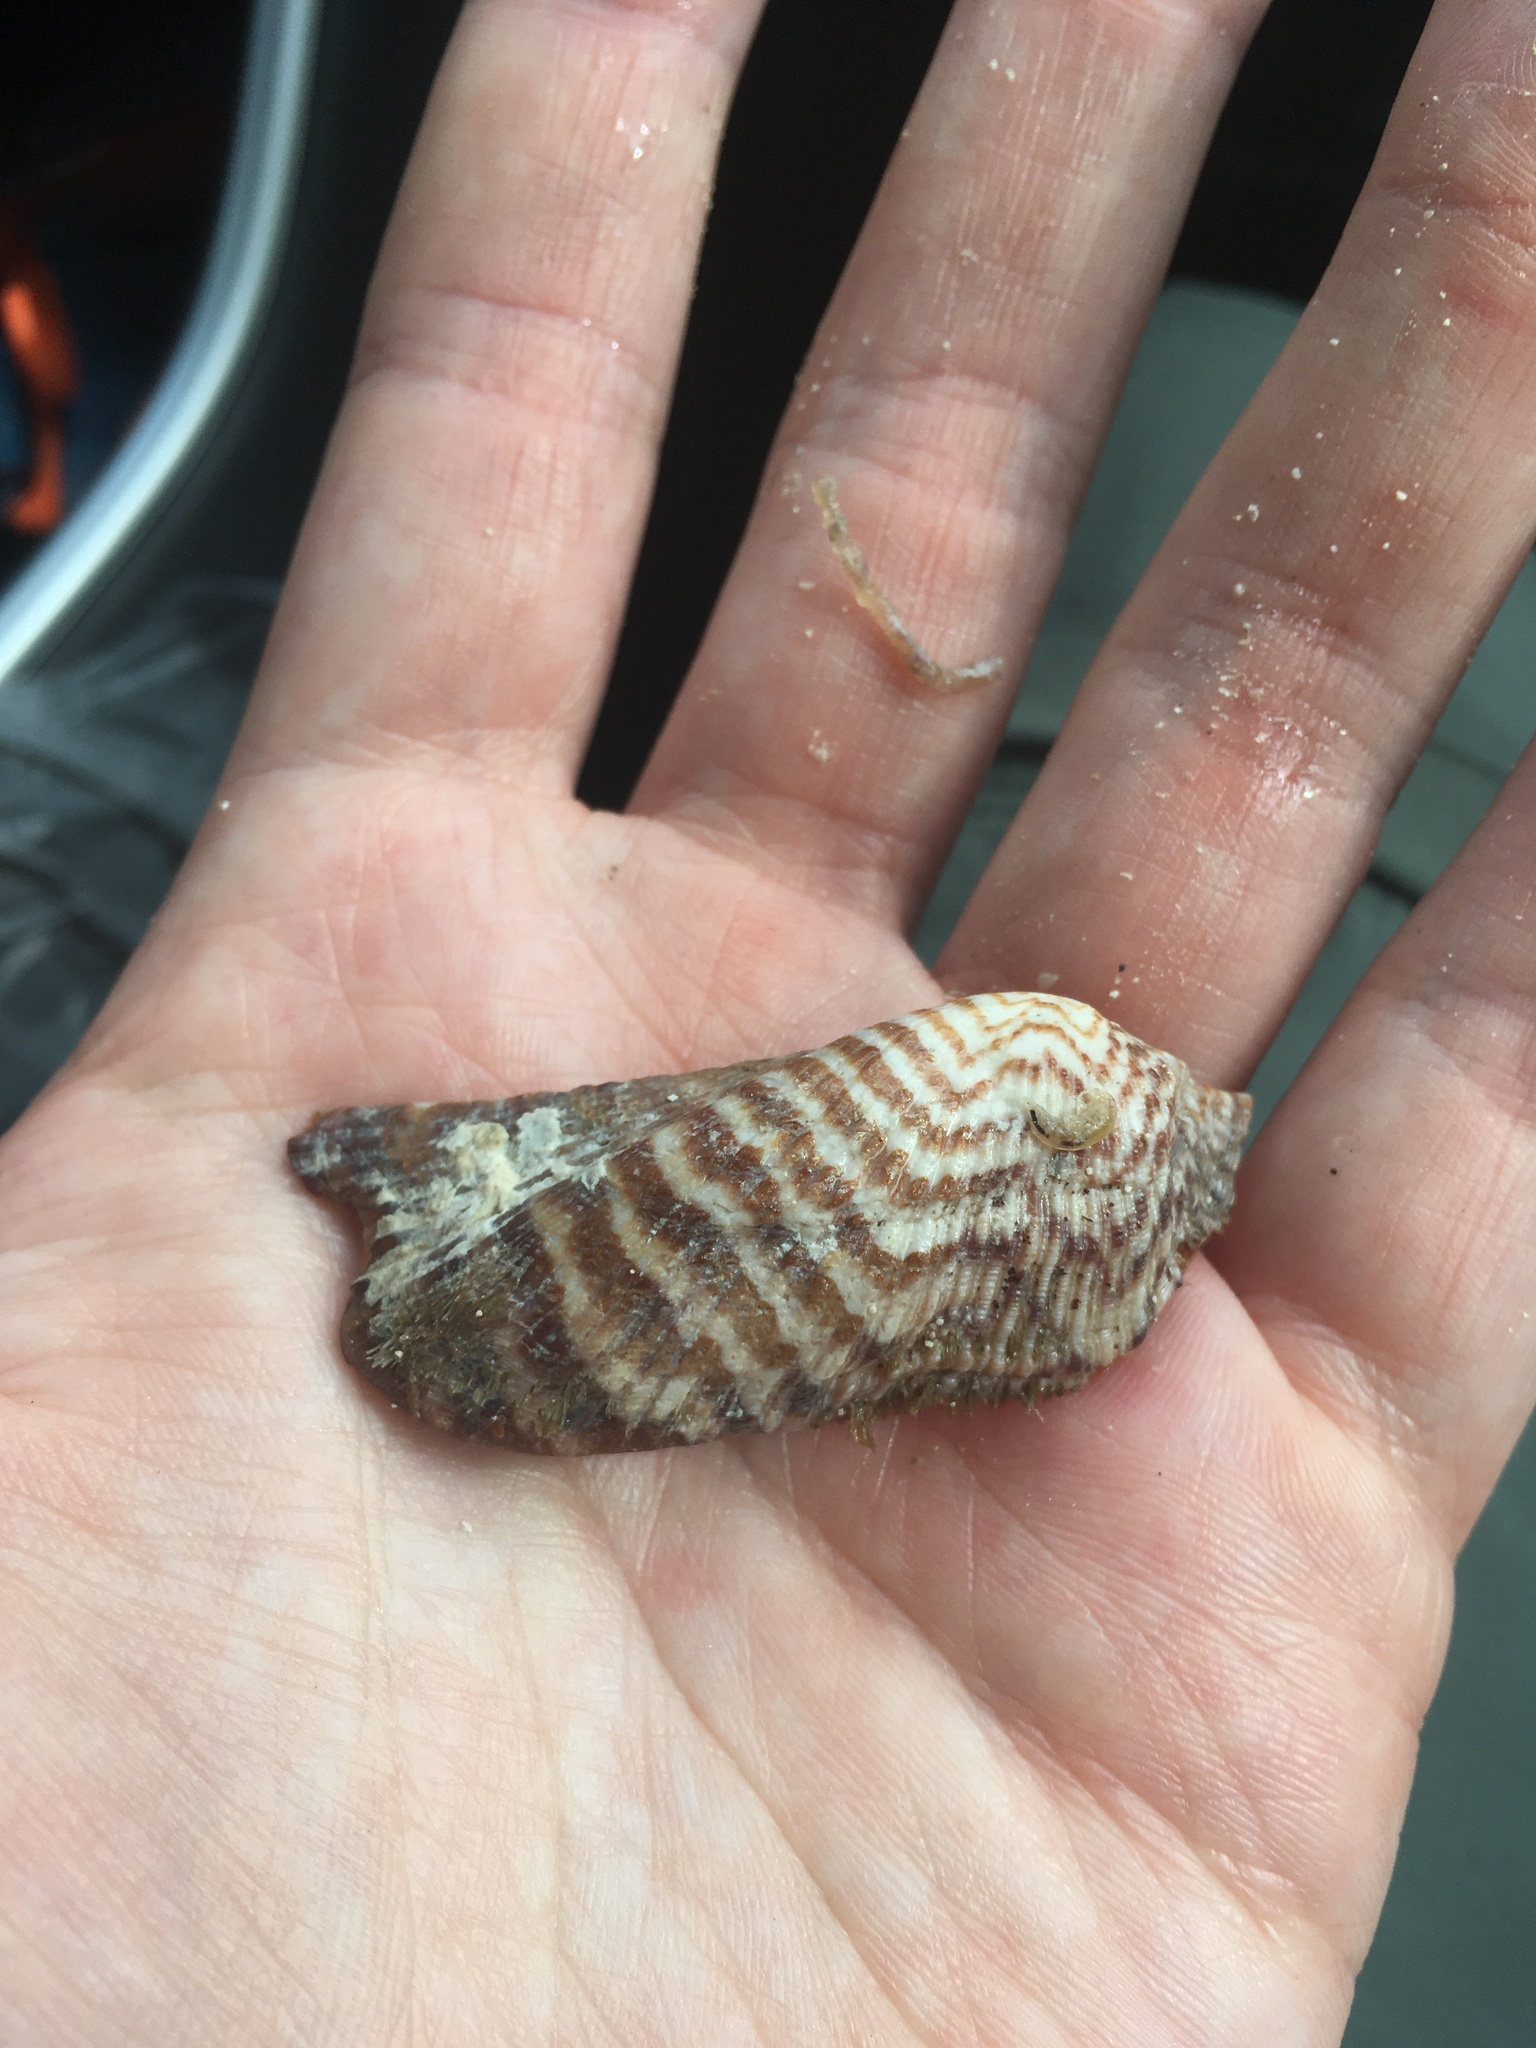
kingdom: Animalia
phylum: Mollusca
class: Bivalvia
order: Arcida
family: Arcidae
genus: Arca
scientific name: Arca zebra
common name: Atlantic turkey wing
